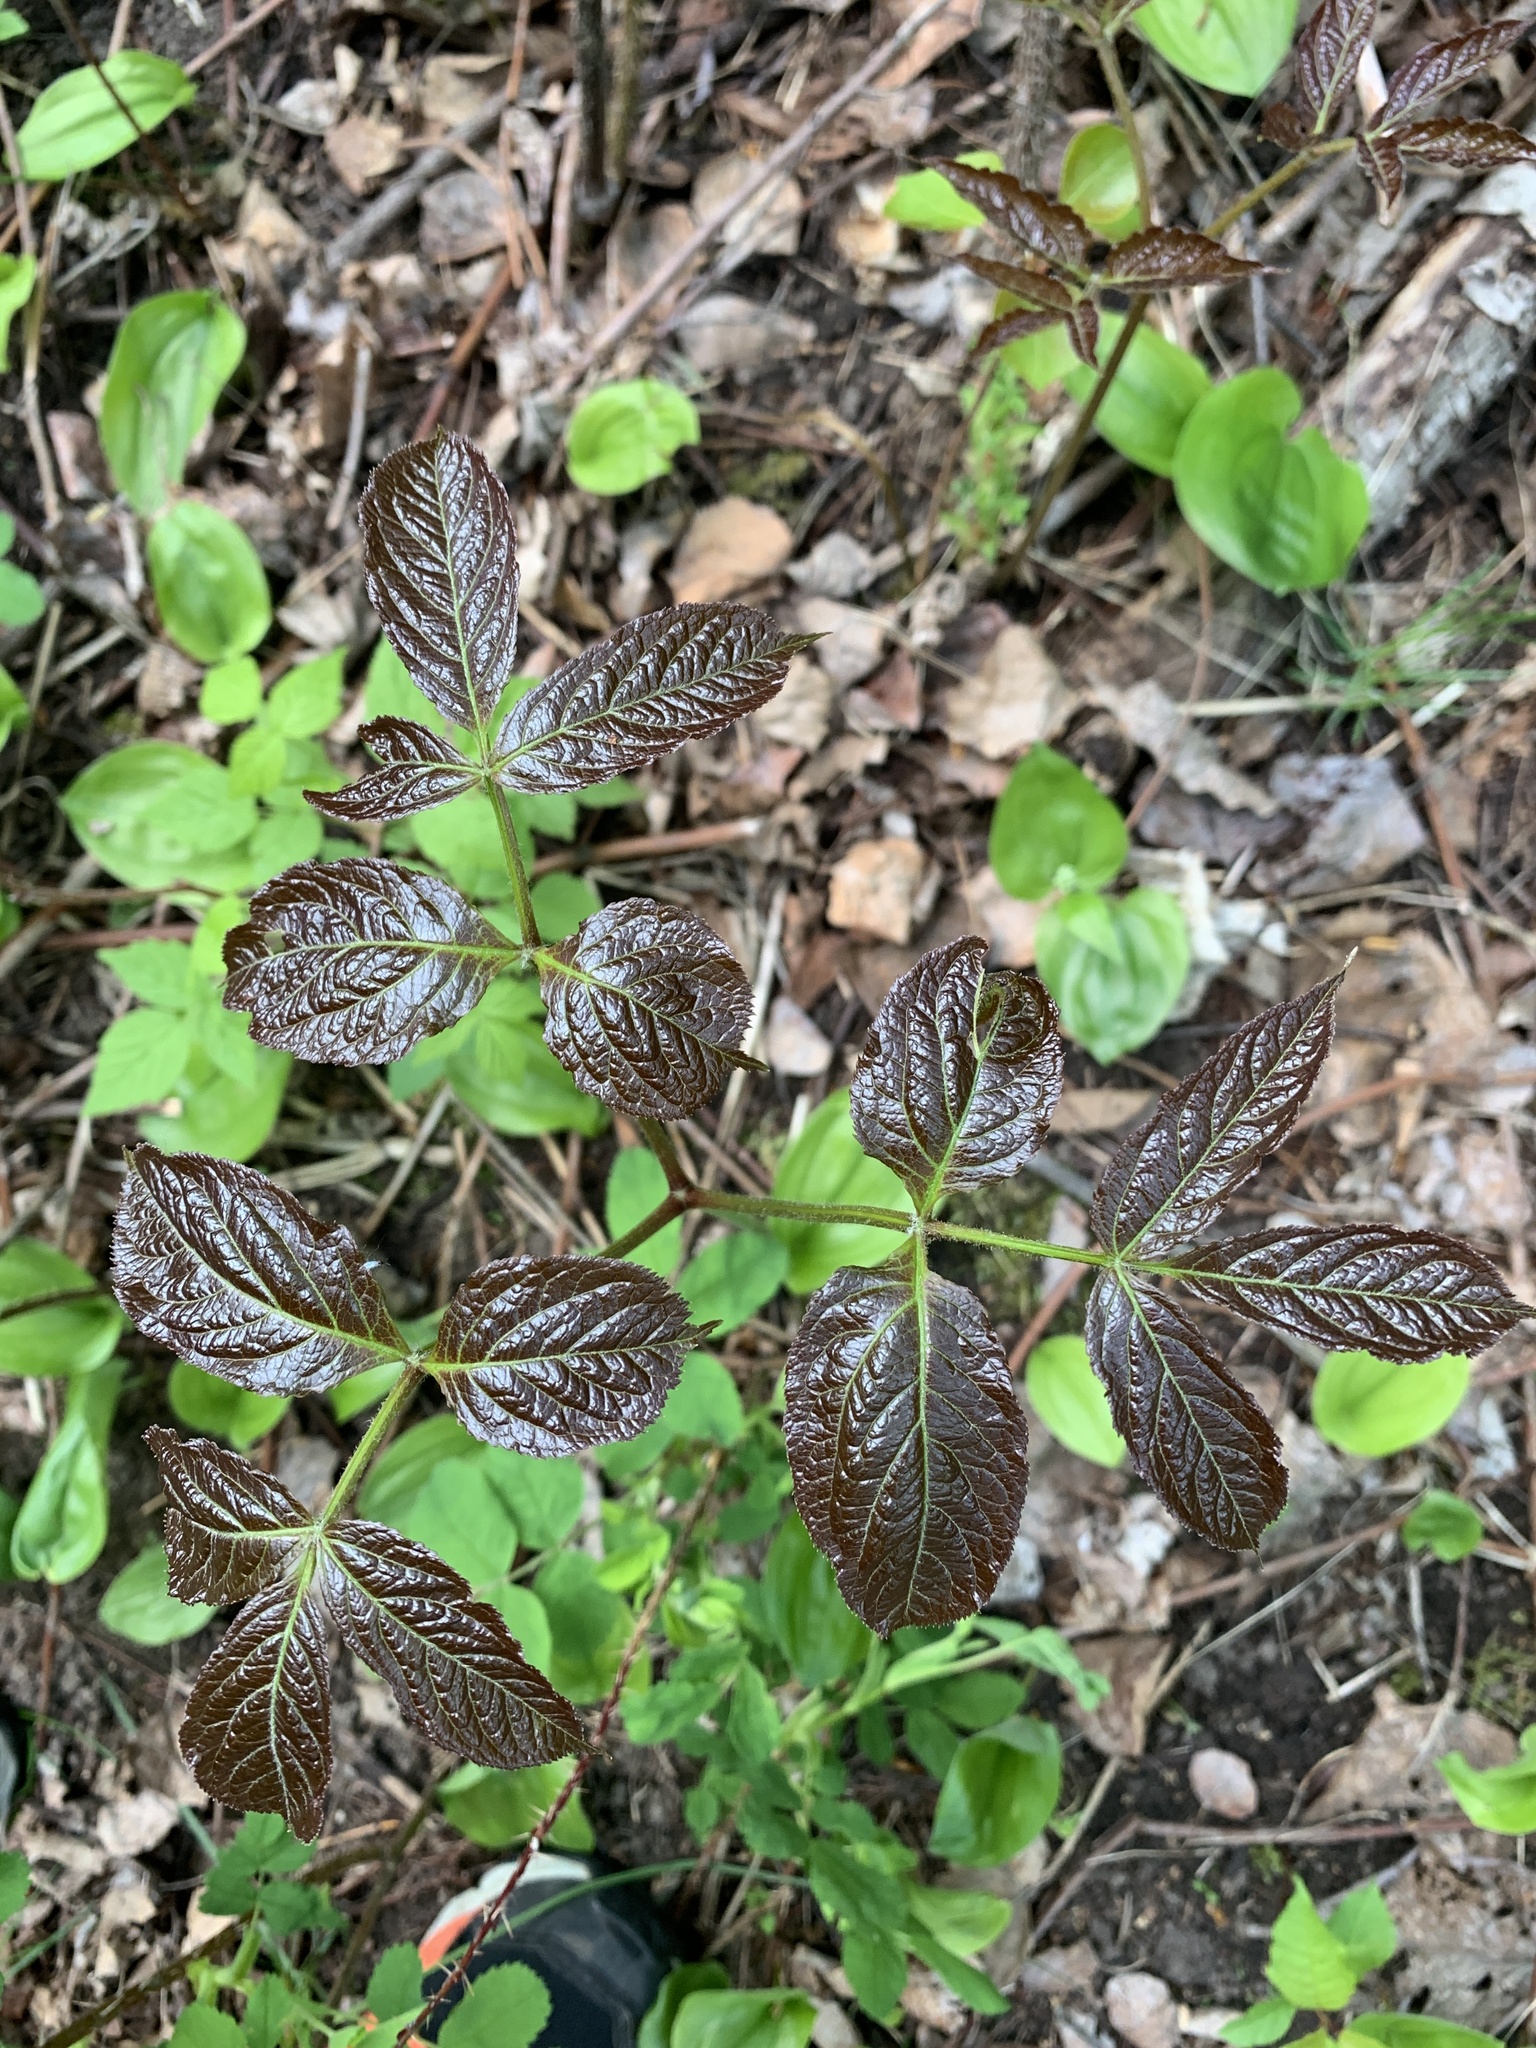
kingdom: Plantae
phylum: Tracheophyta
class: Magnoliopsida
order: Apiales
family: Araliaceae
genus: Aralia
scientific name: Aralia nudicaulis
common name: Wild sarsaparilla
